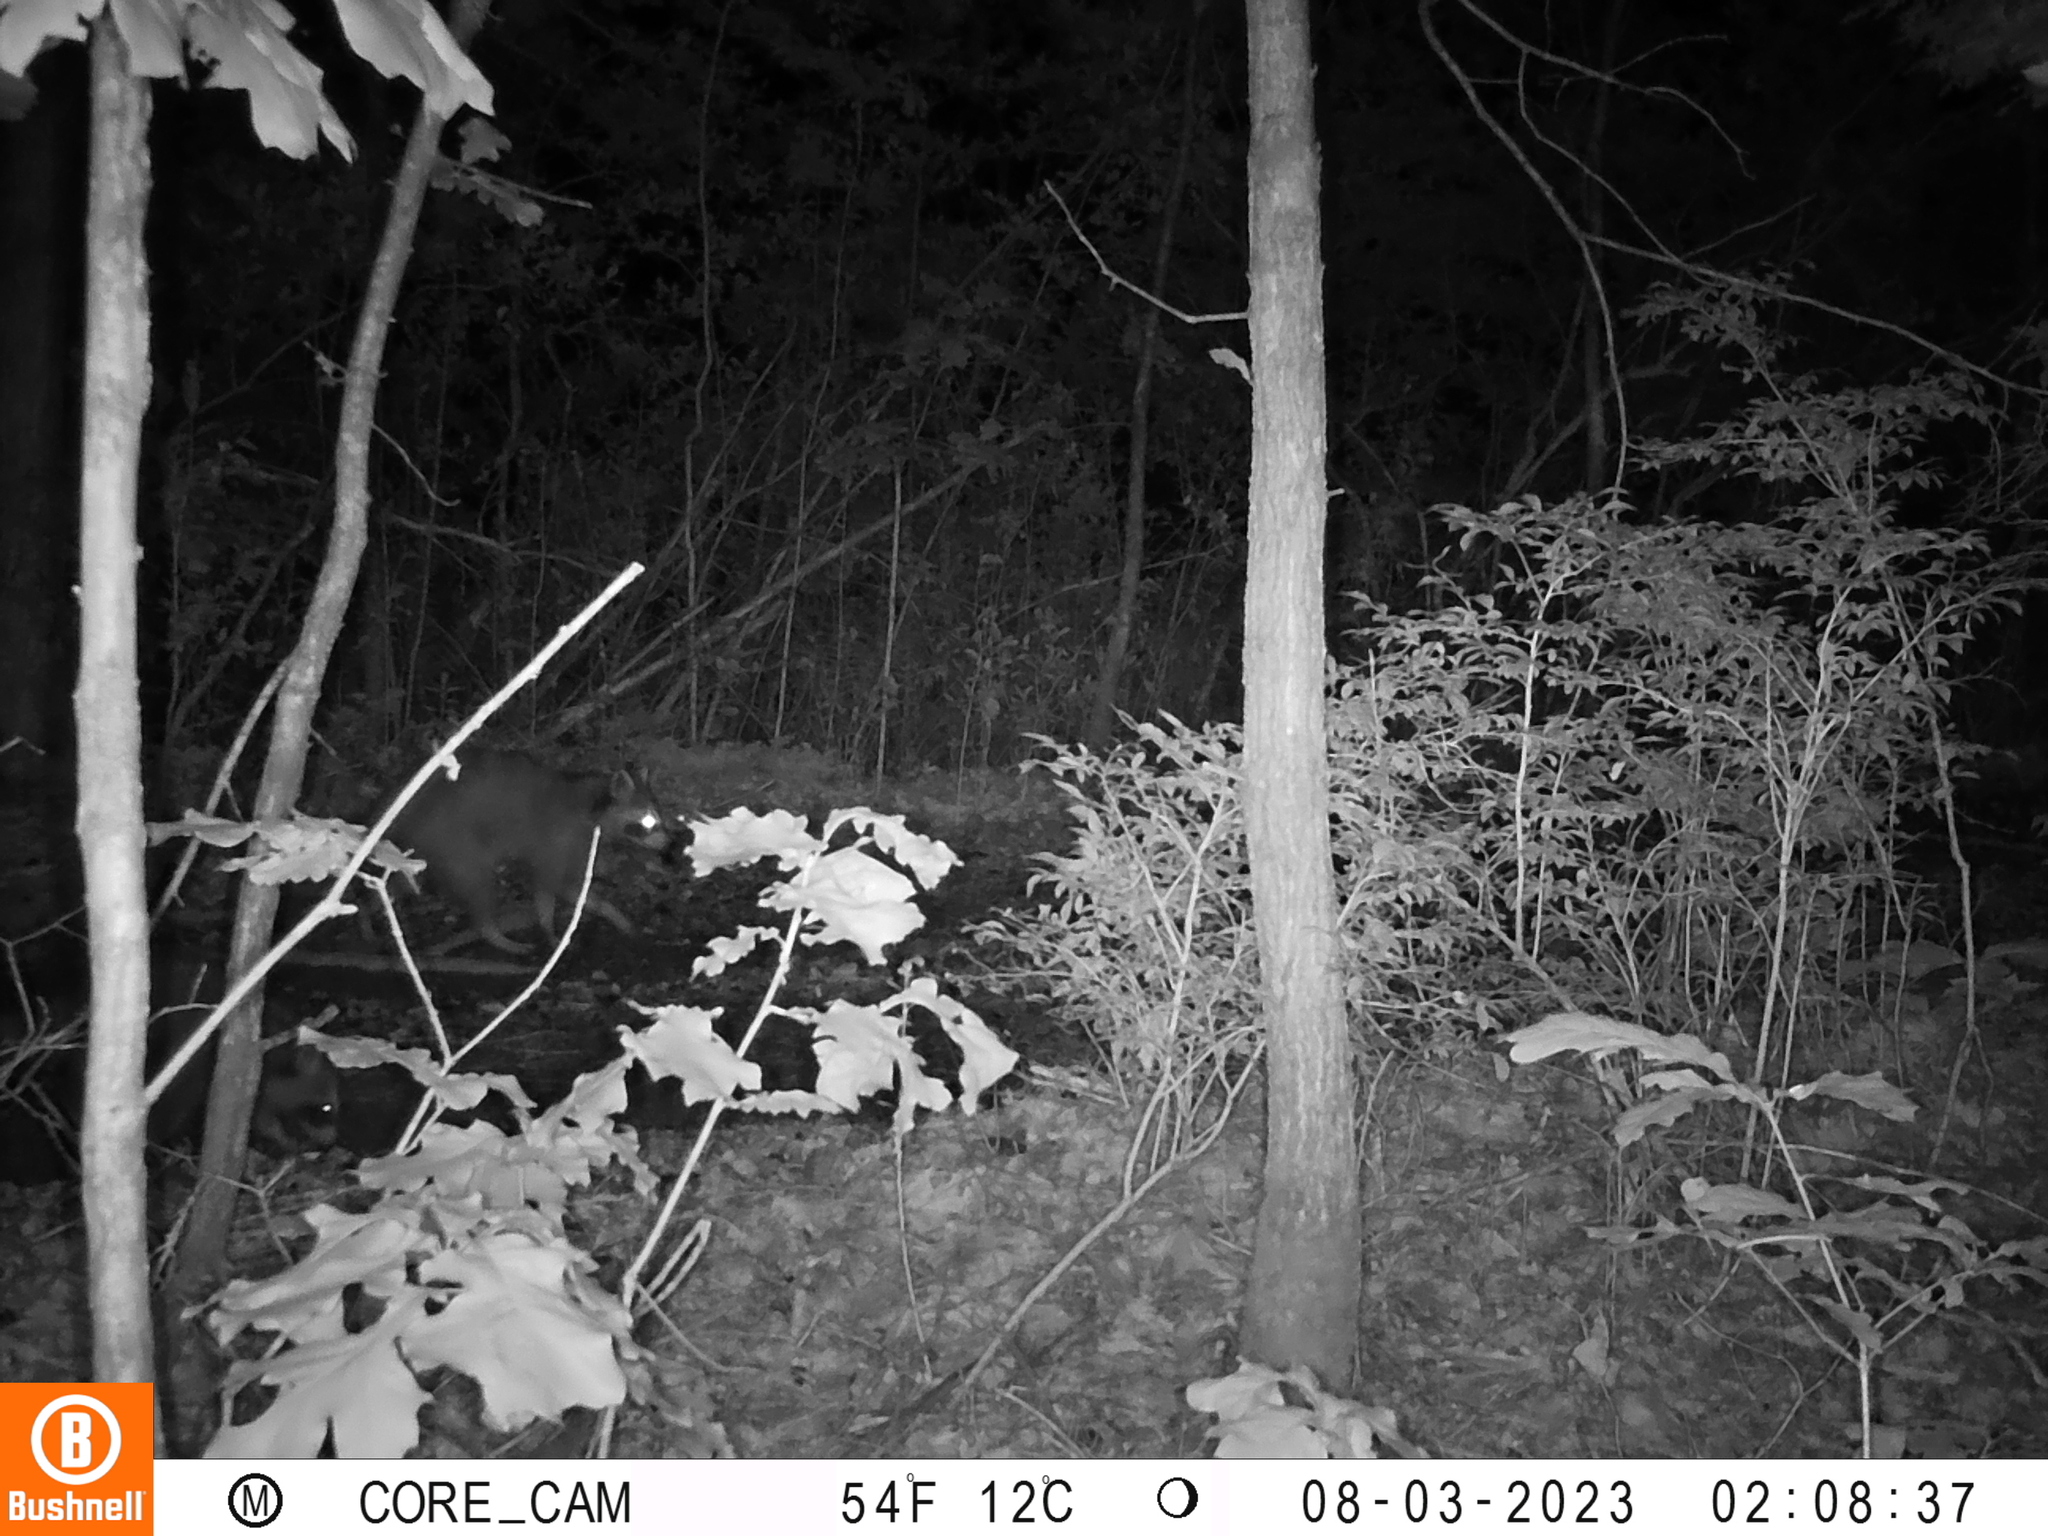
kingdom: Animalia
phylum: Chordata
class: Mammalia
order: Carnivora
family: Procyonidae
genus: Procyon
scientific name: Procyon lotor
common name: Raccoon
